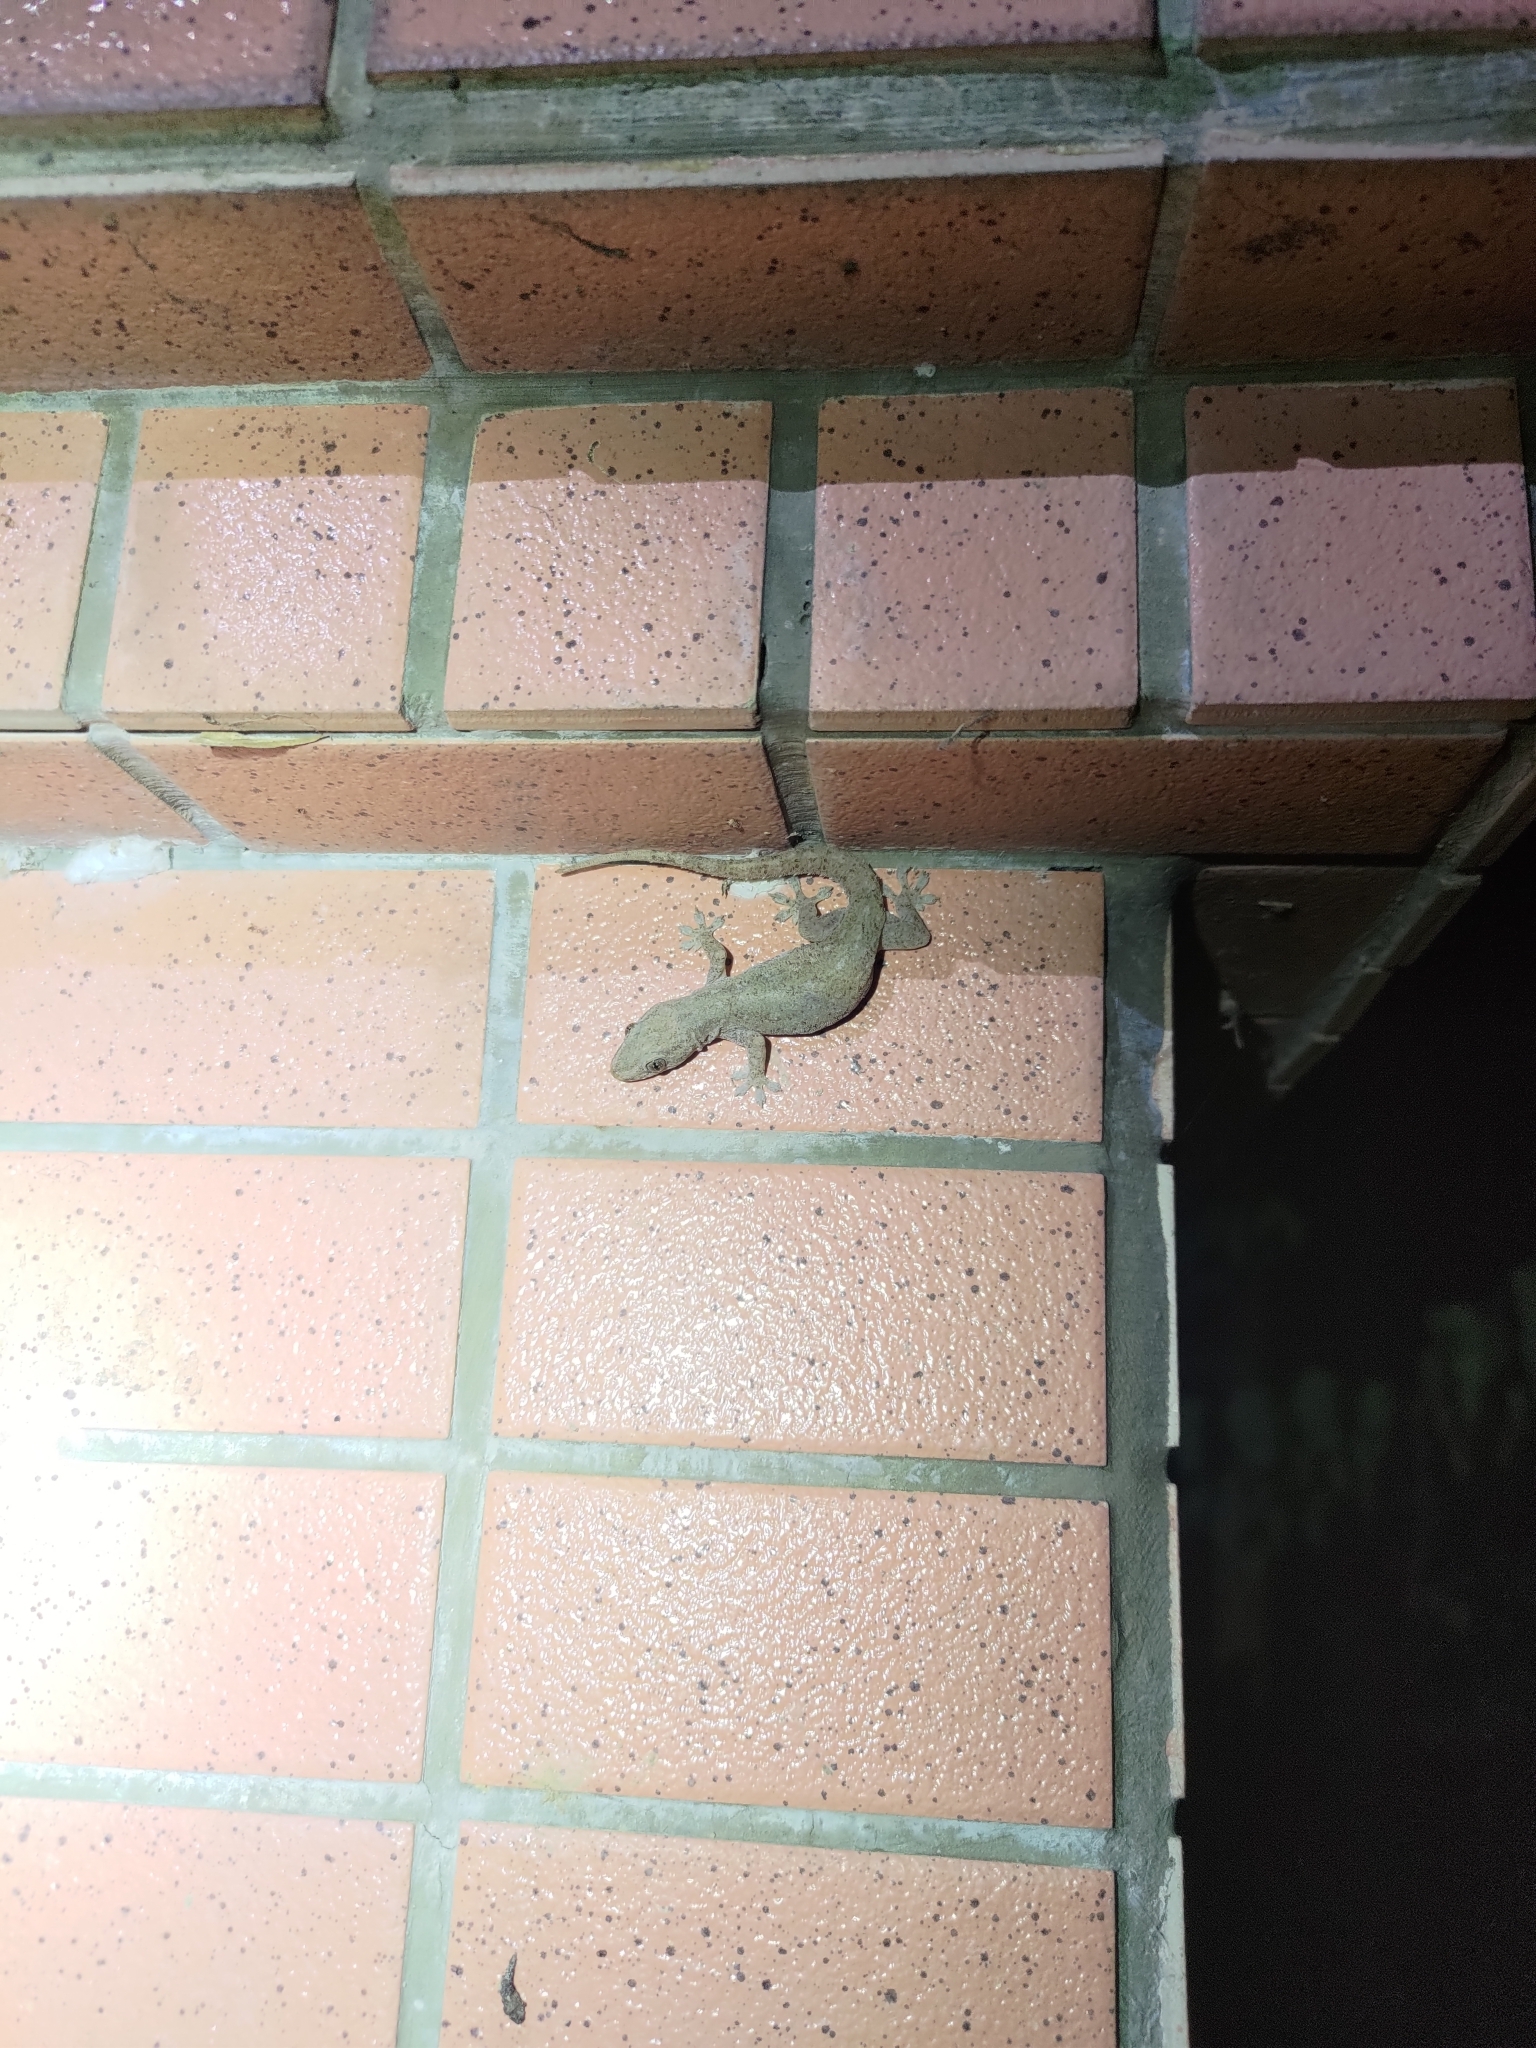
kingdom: Animalia
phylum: Chordata
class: Squamata
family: Gekkonidae
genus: Hemidactylus
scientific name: Hemidactylus frenatus
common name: Common house gecko
